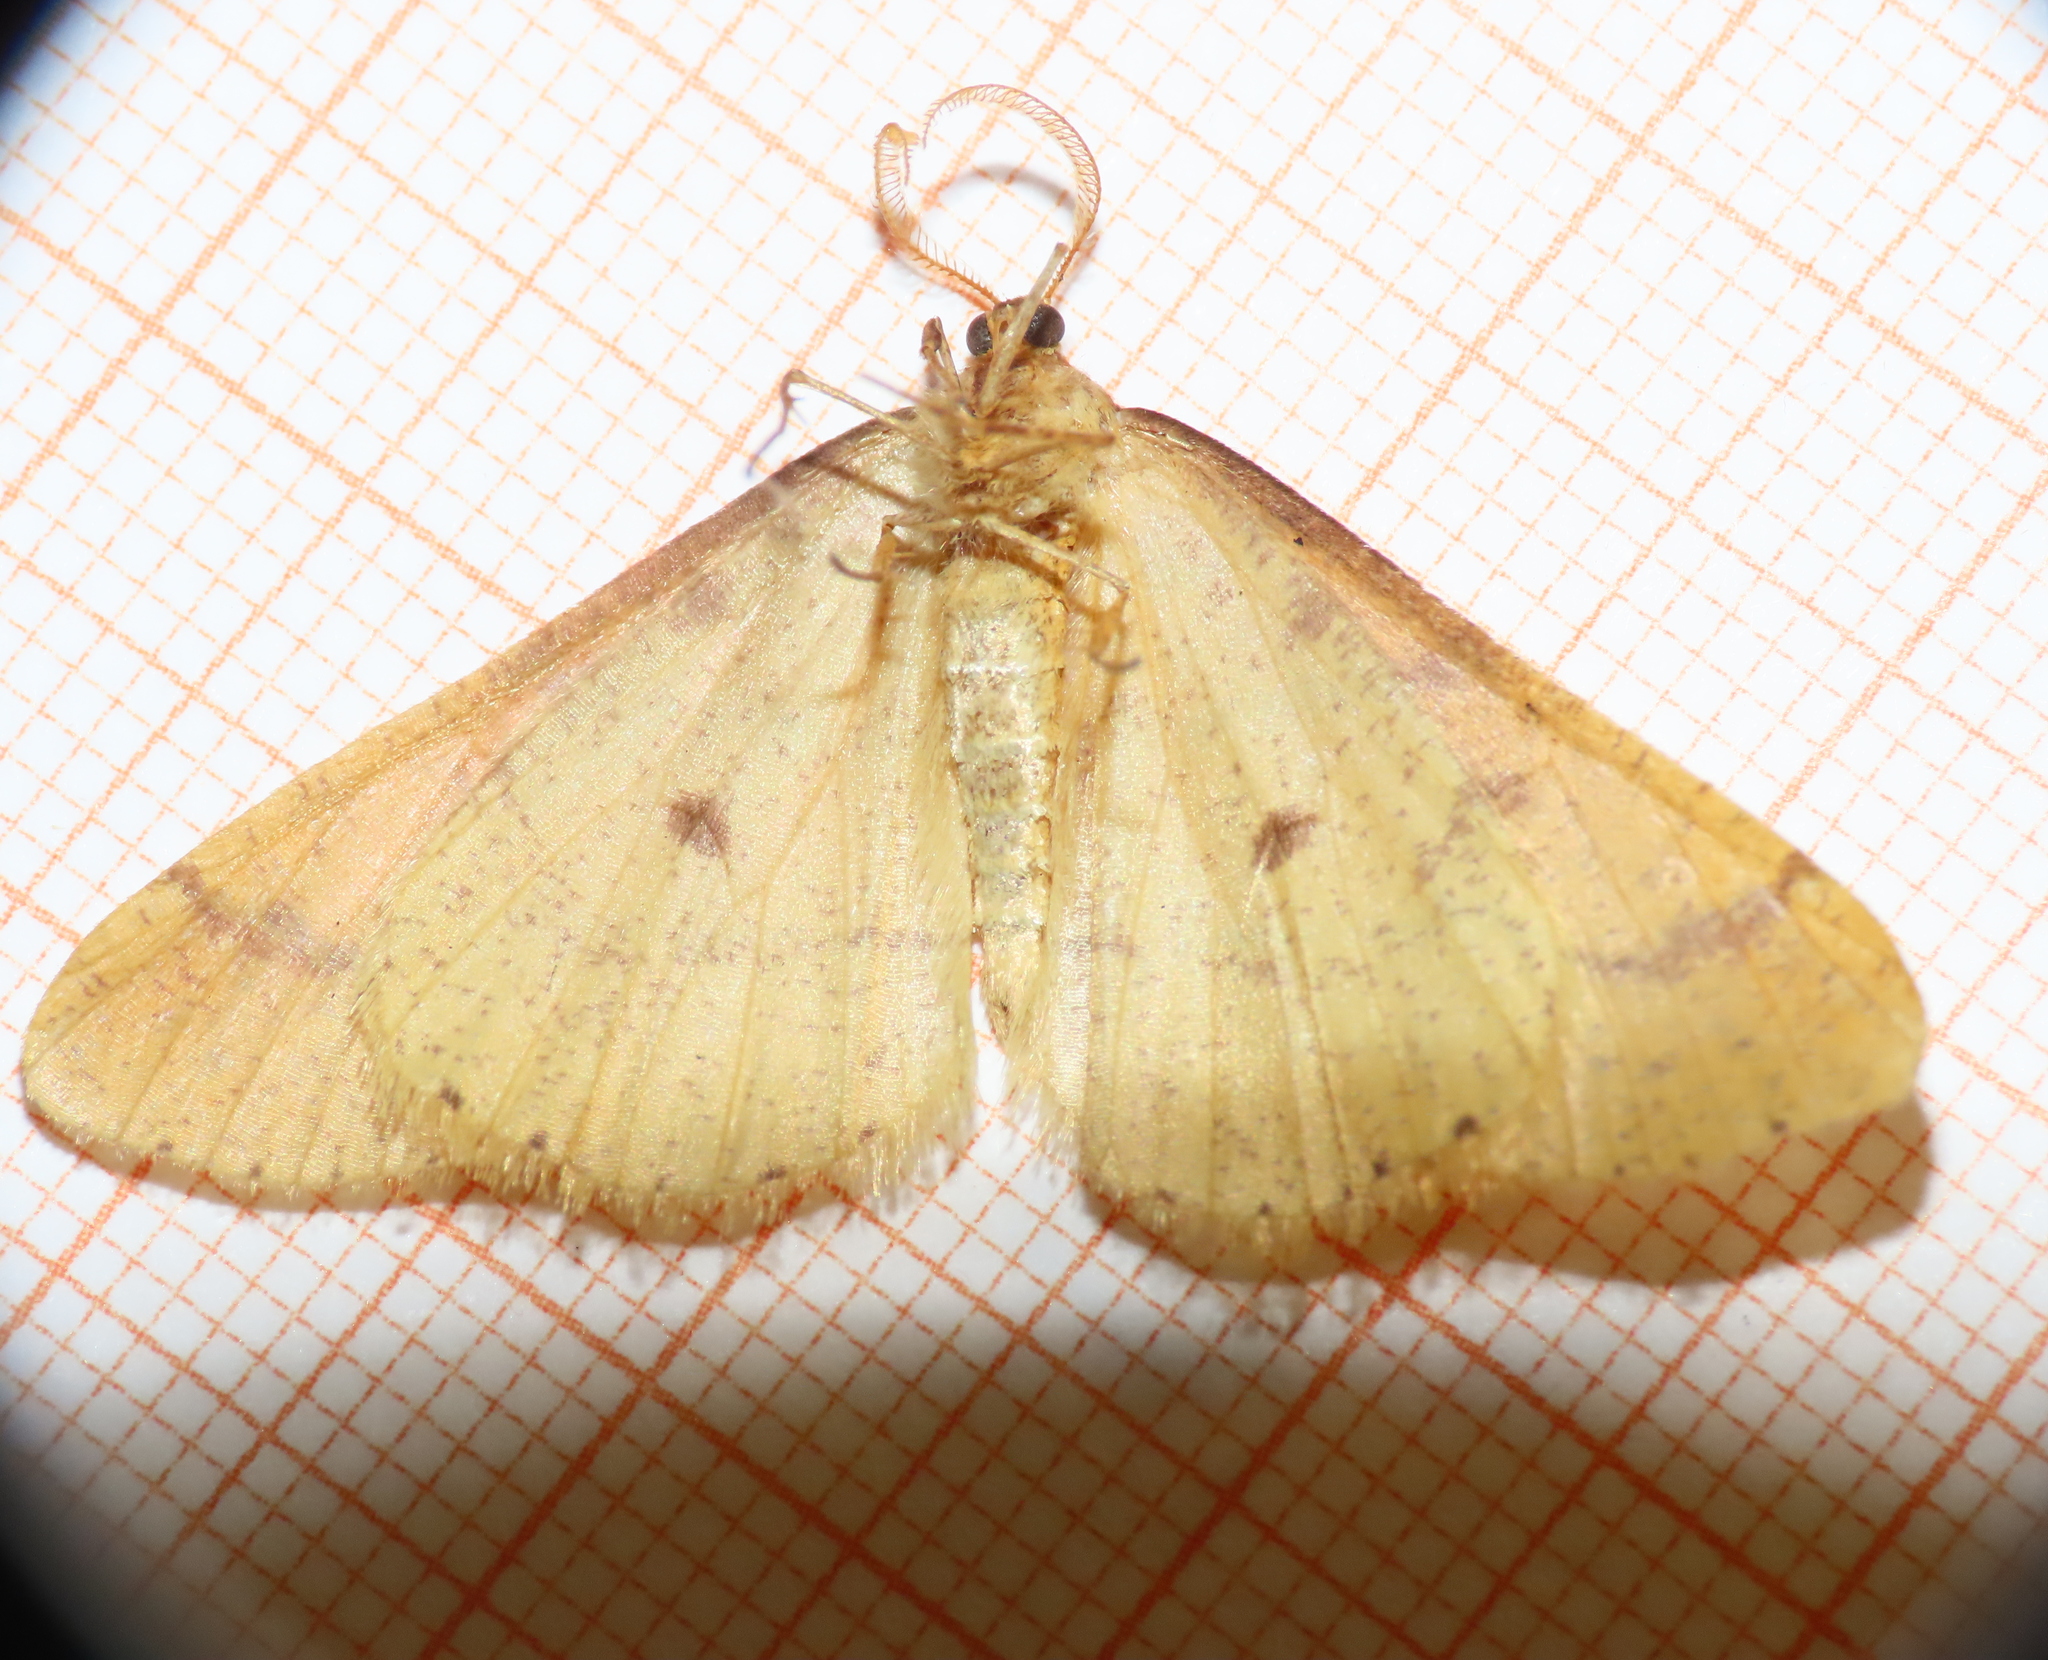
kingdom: Animalia
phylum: Arthropoda
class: Insecta
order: Lepidoptera
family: Geometridae
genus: Agriopis
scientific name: Agriopis aurantiaria
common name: Scarce umber
